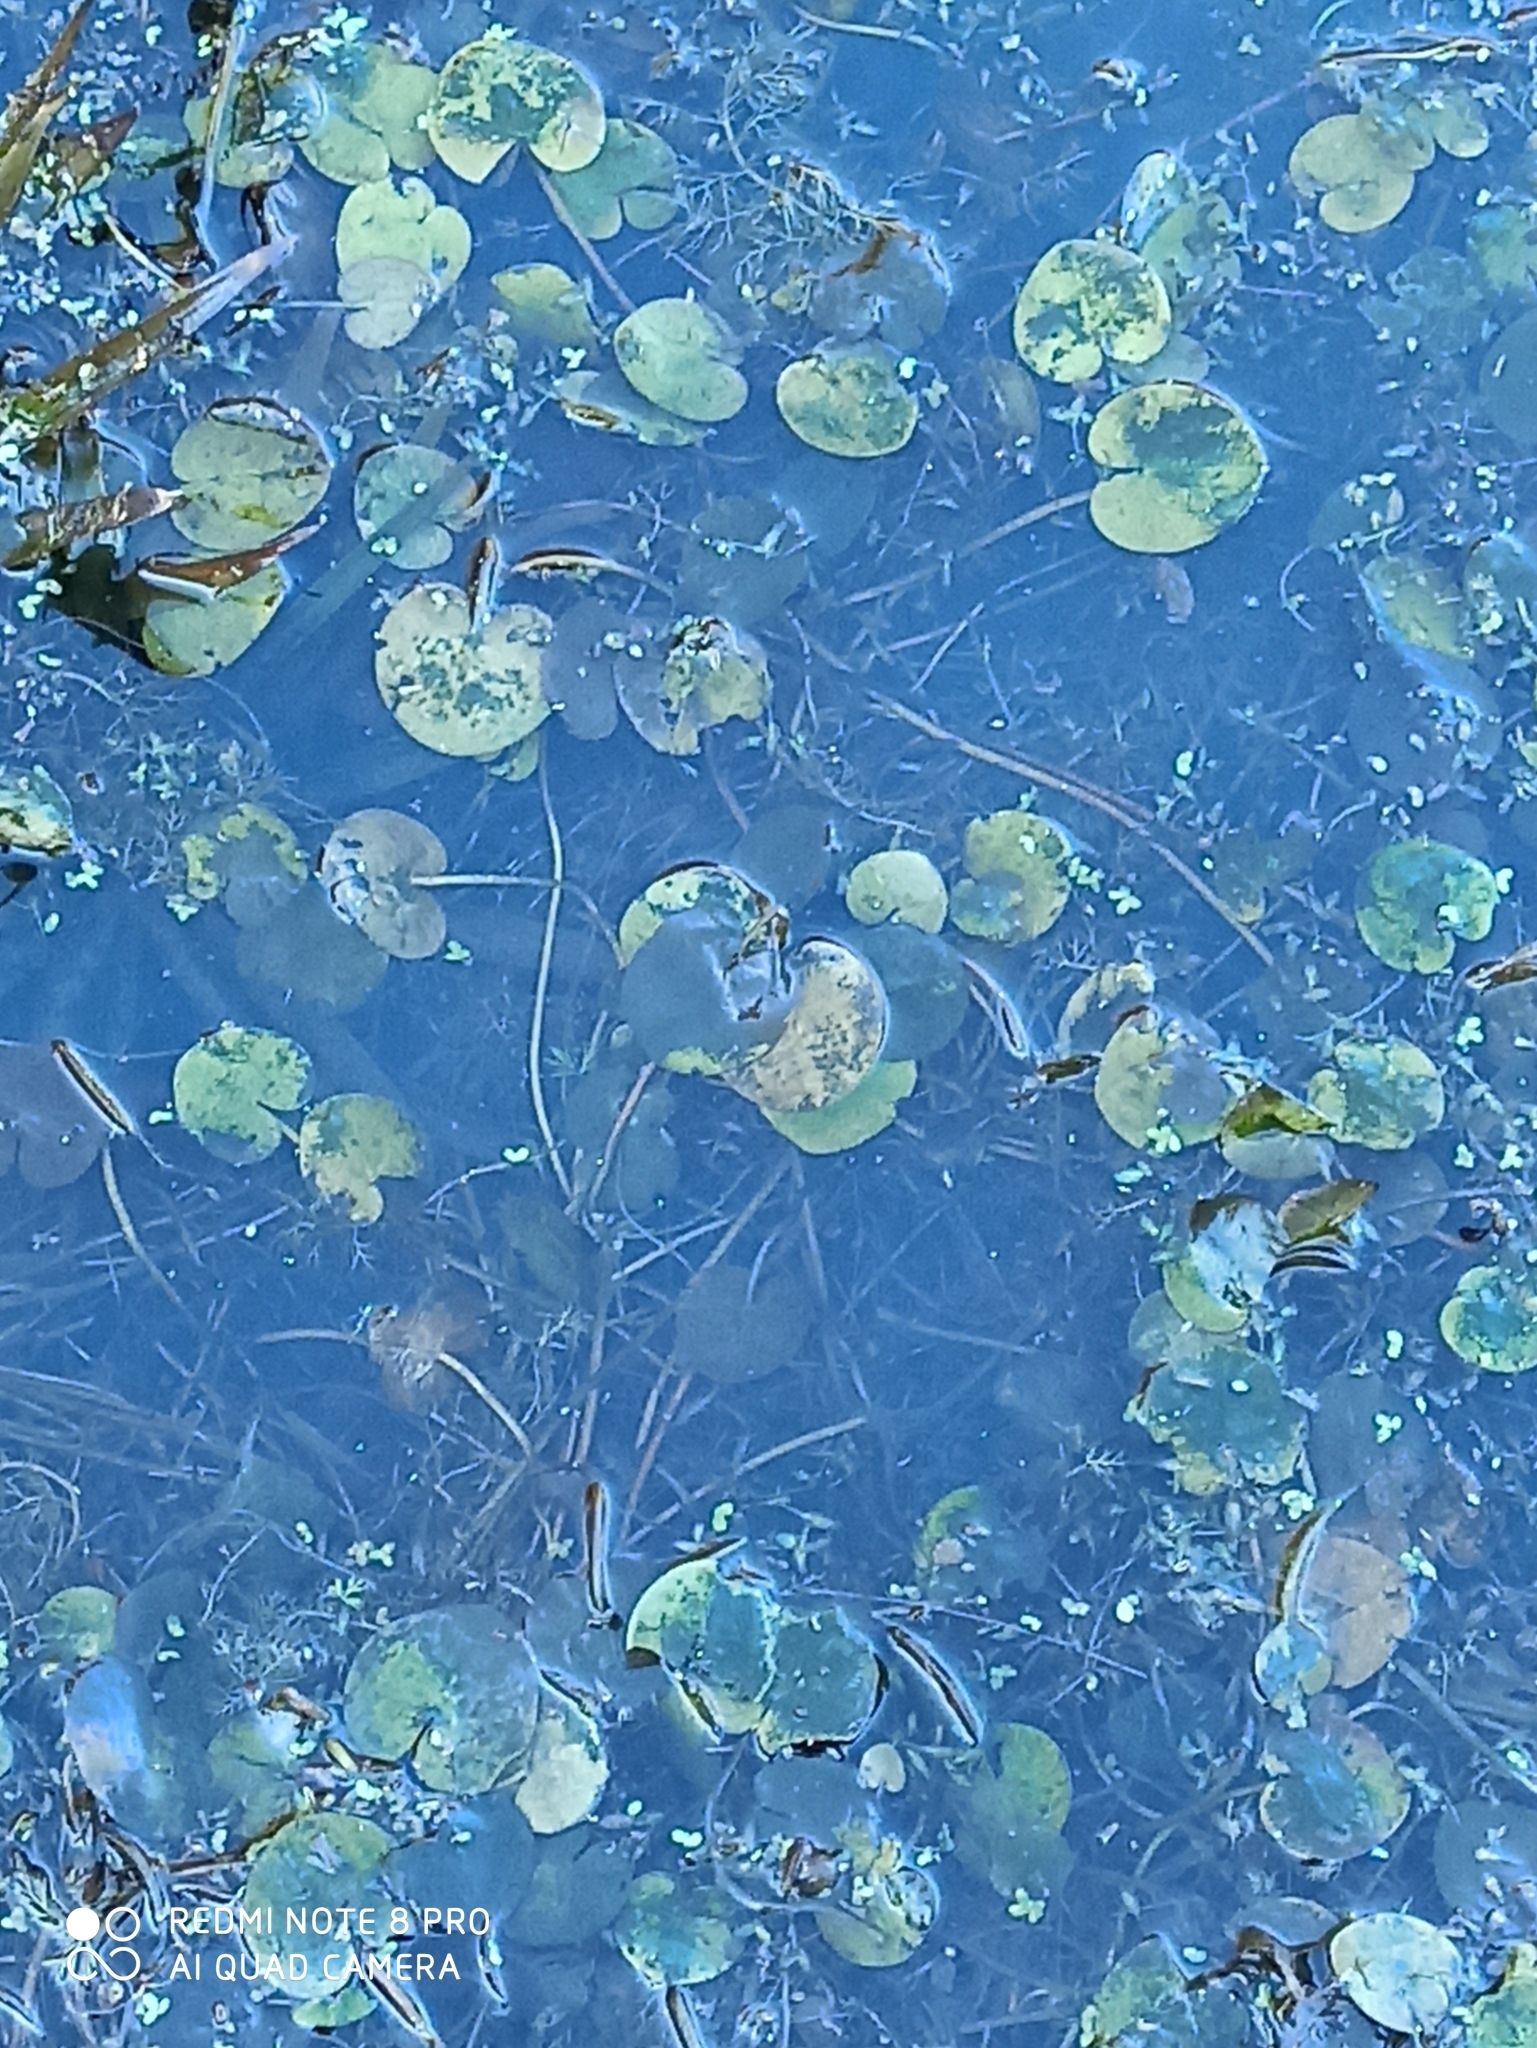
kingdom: Plantae
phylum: Tracheophyta
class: Liliopsida
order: Alismatales
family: Hydrocharitaceae
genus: Hydrocharis
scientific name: Hydrocharis morsus-ranae
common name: Frogbit
